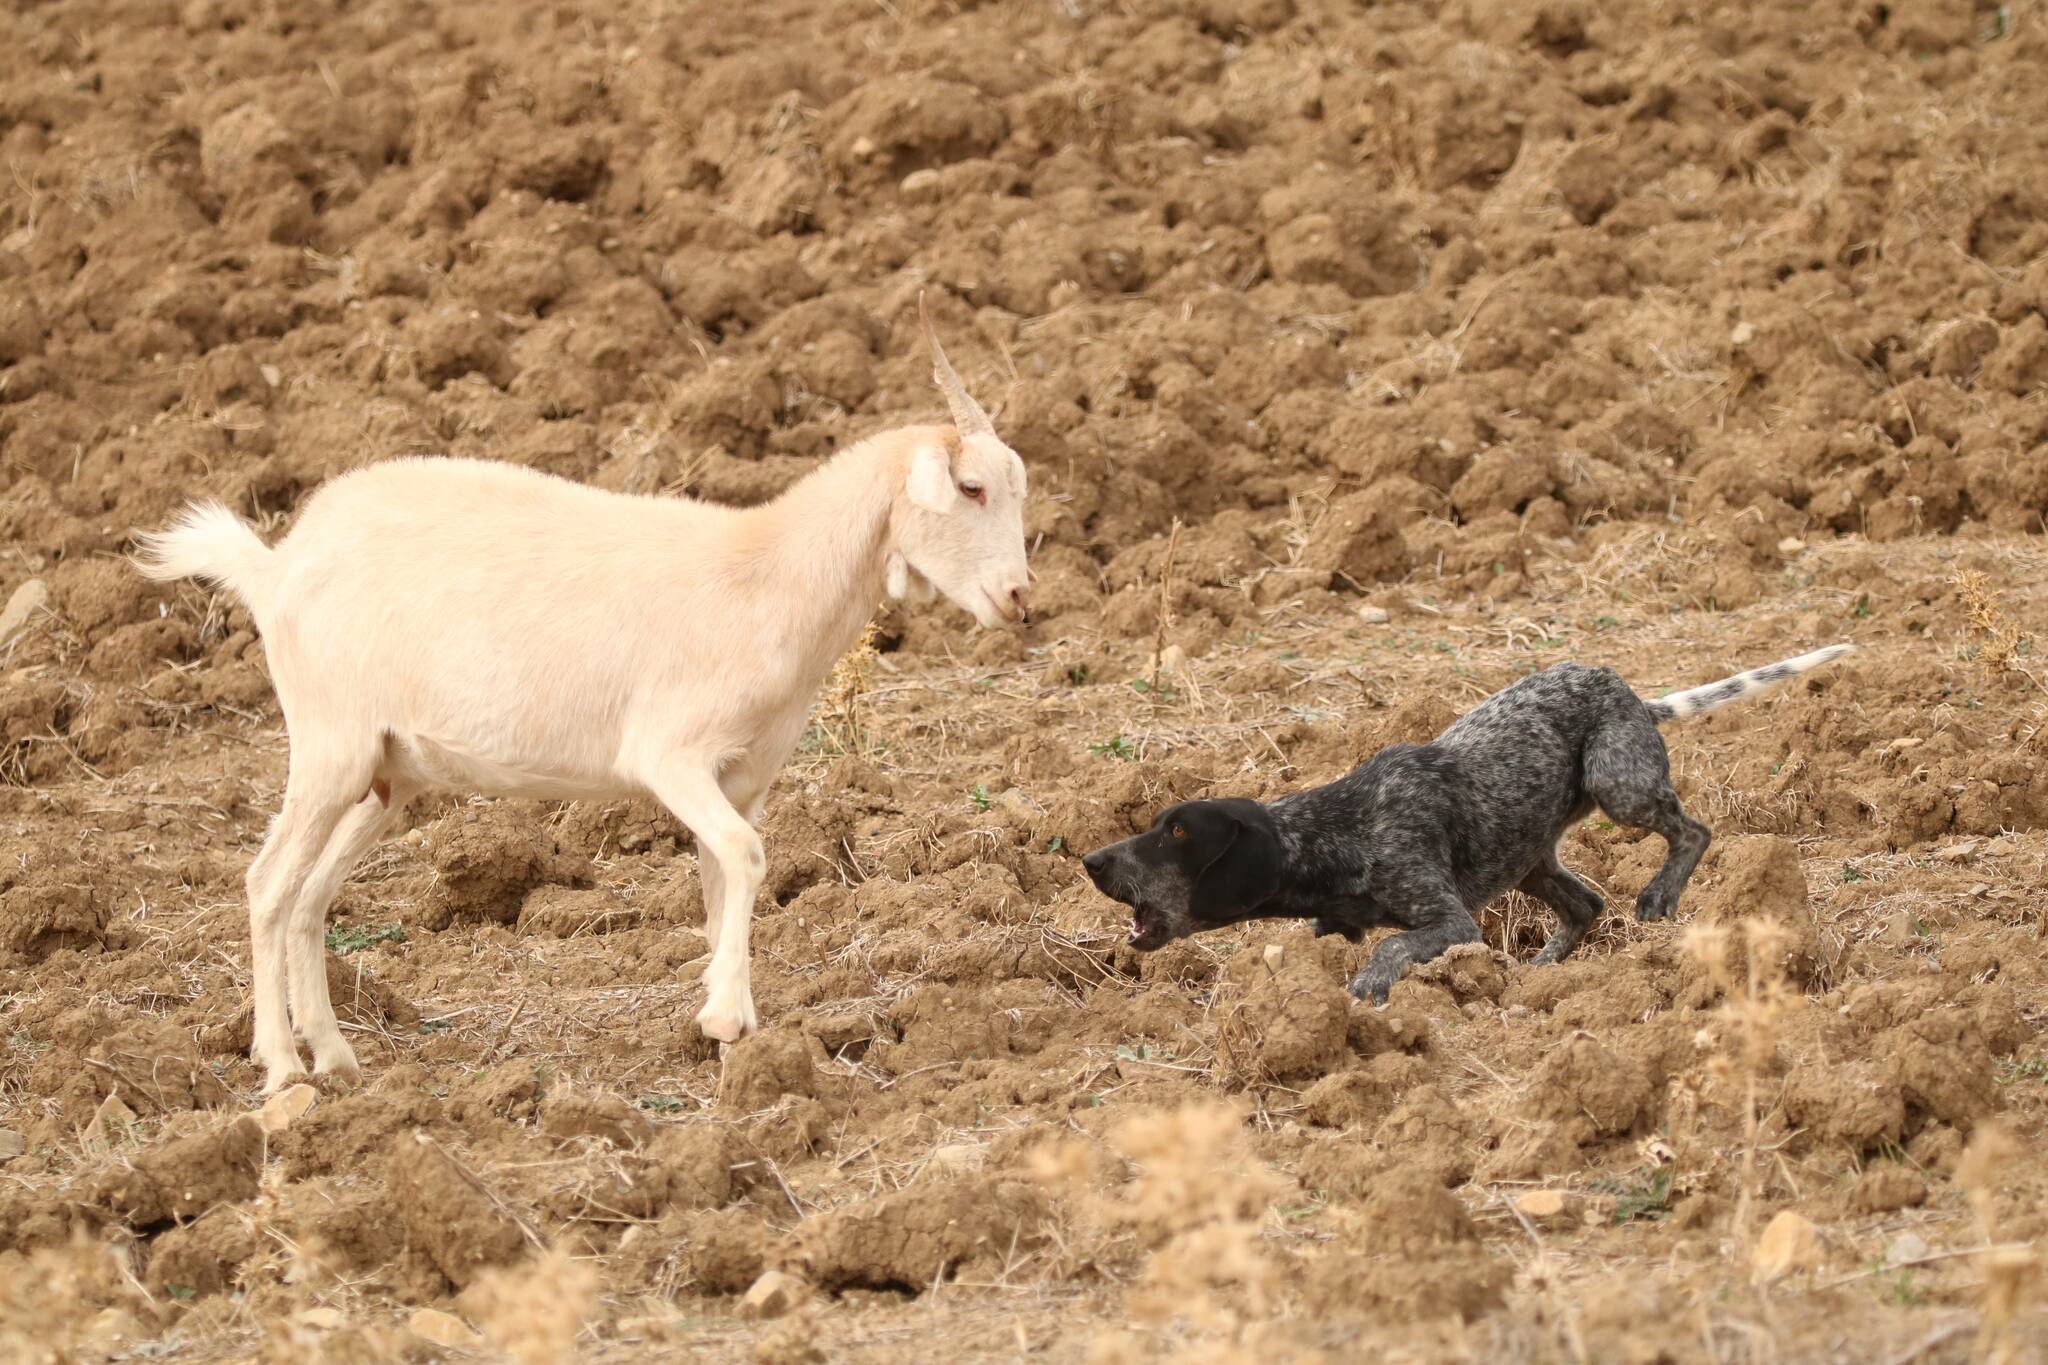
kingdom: Animalia
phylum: Chordata
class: Mammalia
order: Carnivora
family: Canidae
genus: Canis
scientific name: Canis lupus
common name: Gray wolf
